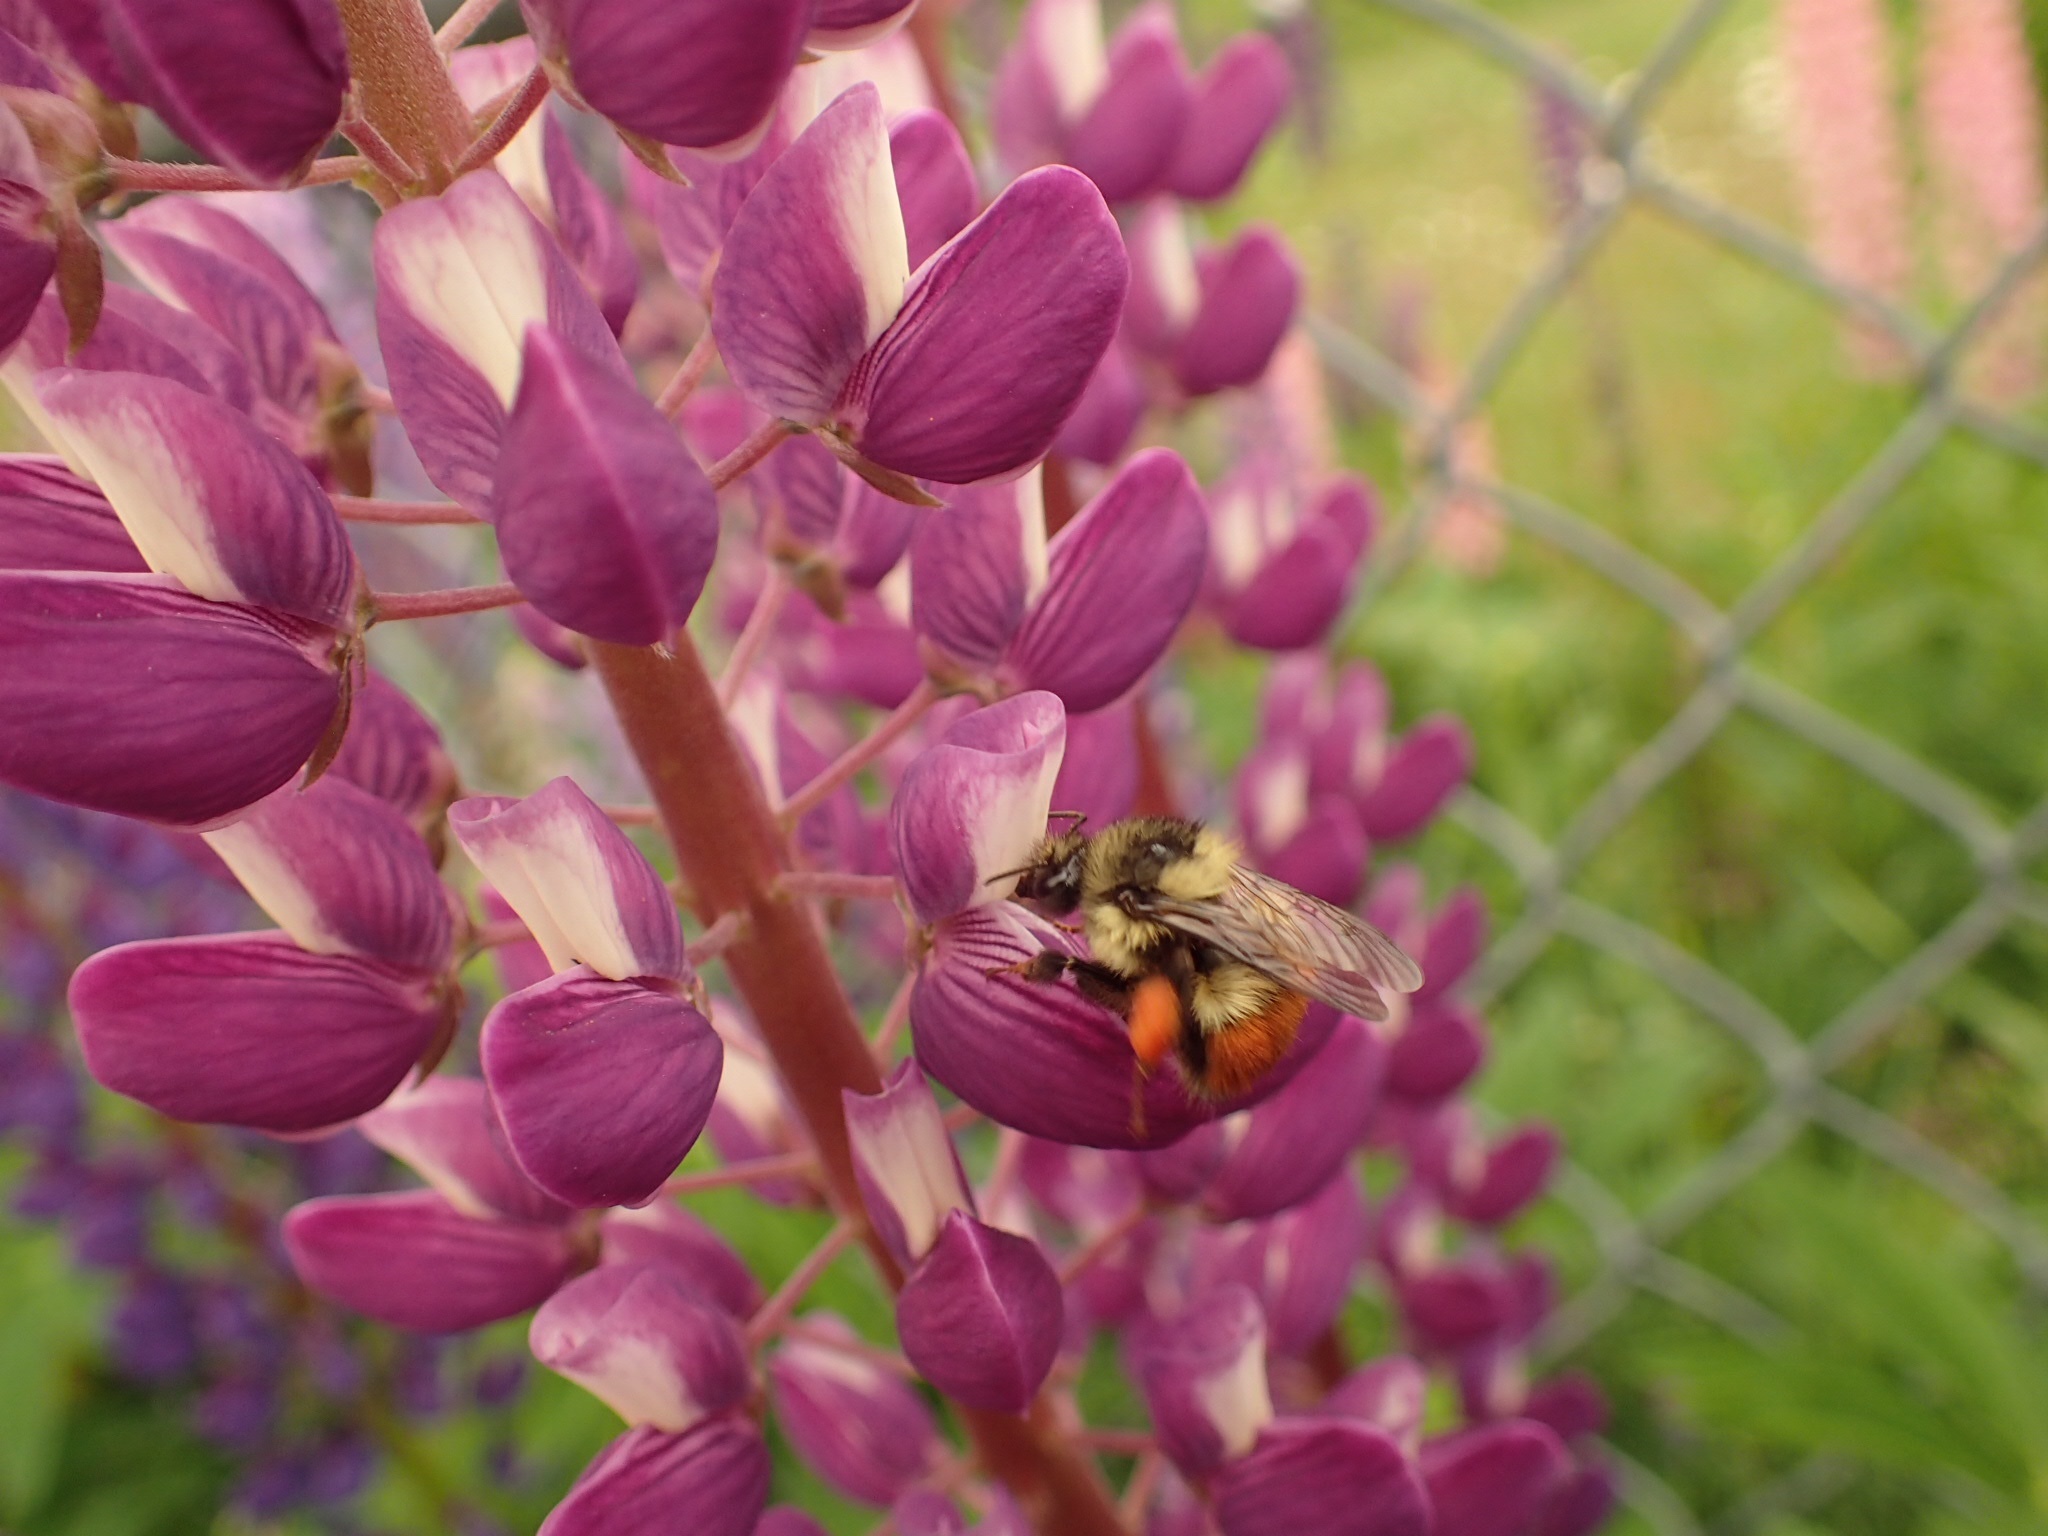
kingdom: Animalia
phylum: Arthropoda
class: Insecta
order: Hymenoptera
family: Apidae
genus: Bombus
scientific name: Bombus melanopygus
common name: Black tail bumble bee
